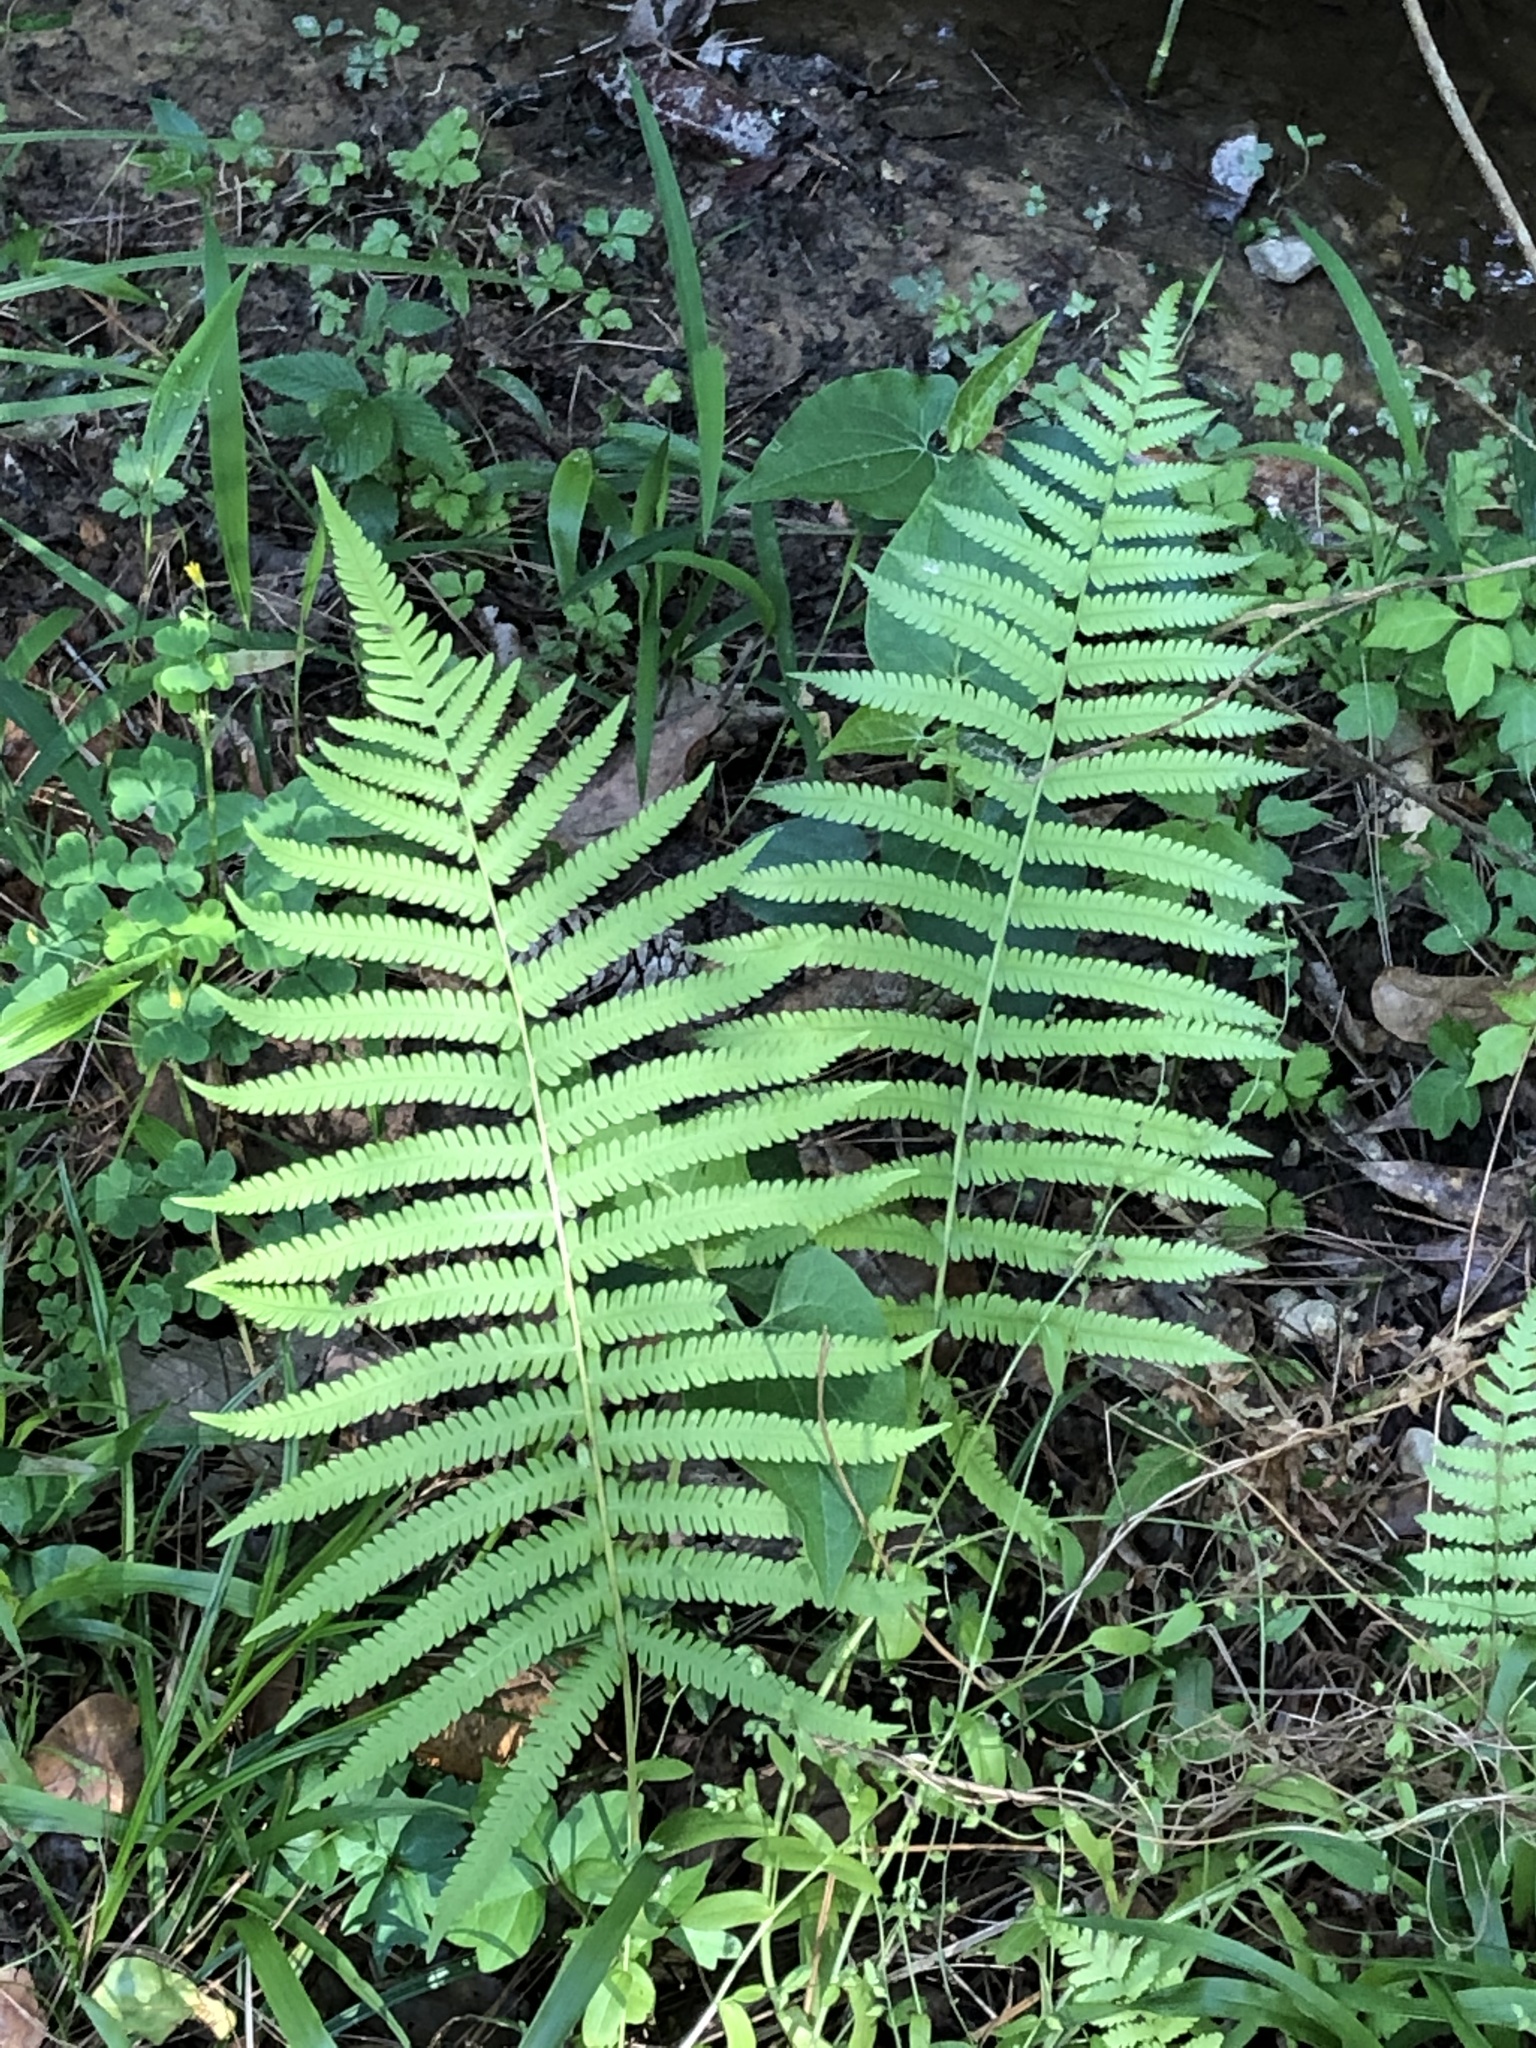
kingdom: Plantae
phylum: Tracheophyta
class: Polypodiopsida
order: Osmundales
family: Osmundaceae
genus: Osmundastrum
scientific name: Osmundastrum cinnamomeum
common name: Cinnamon fern
